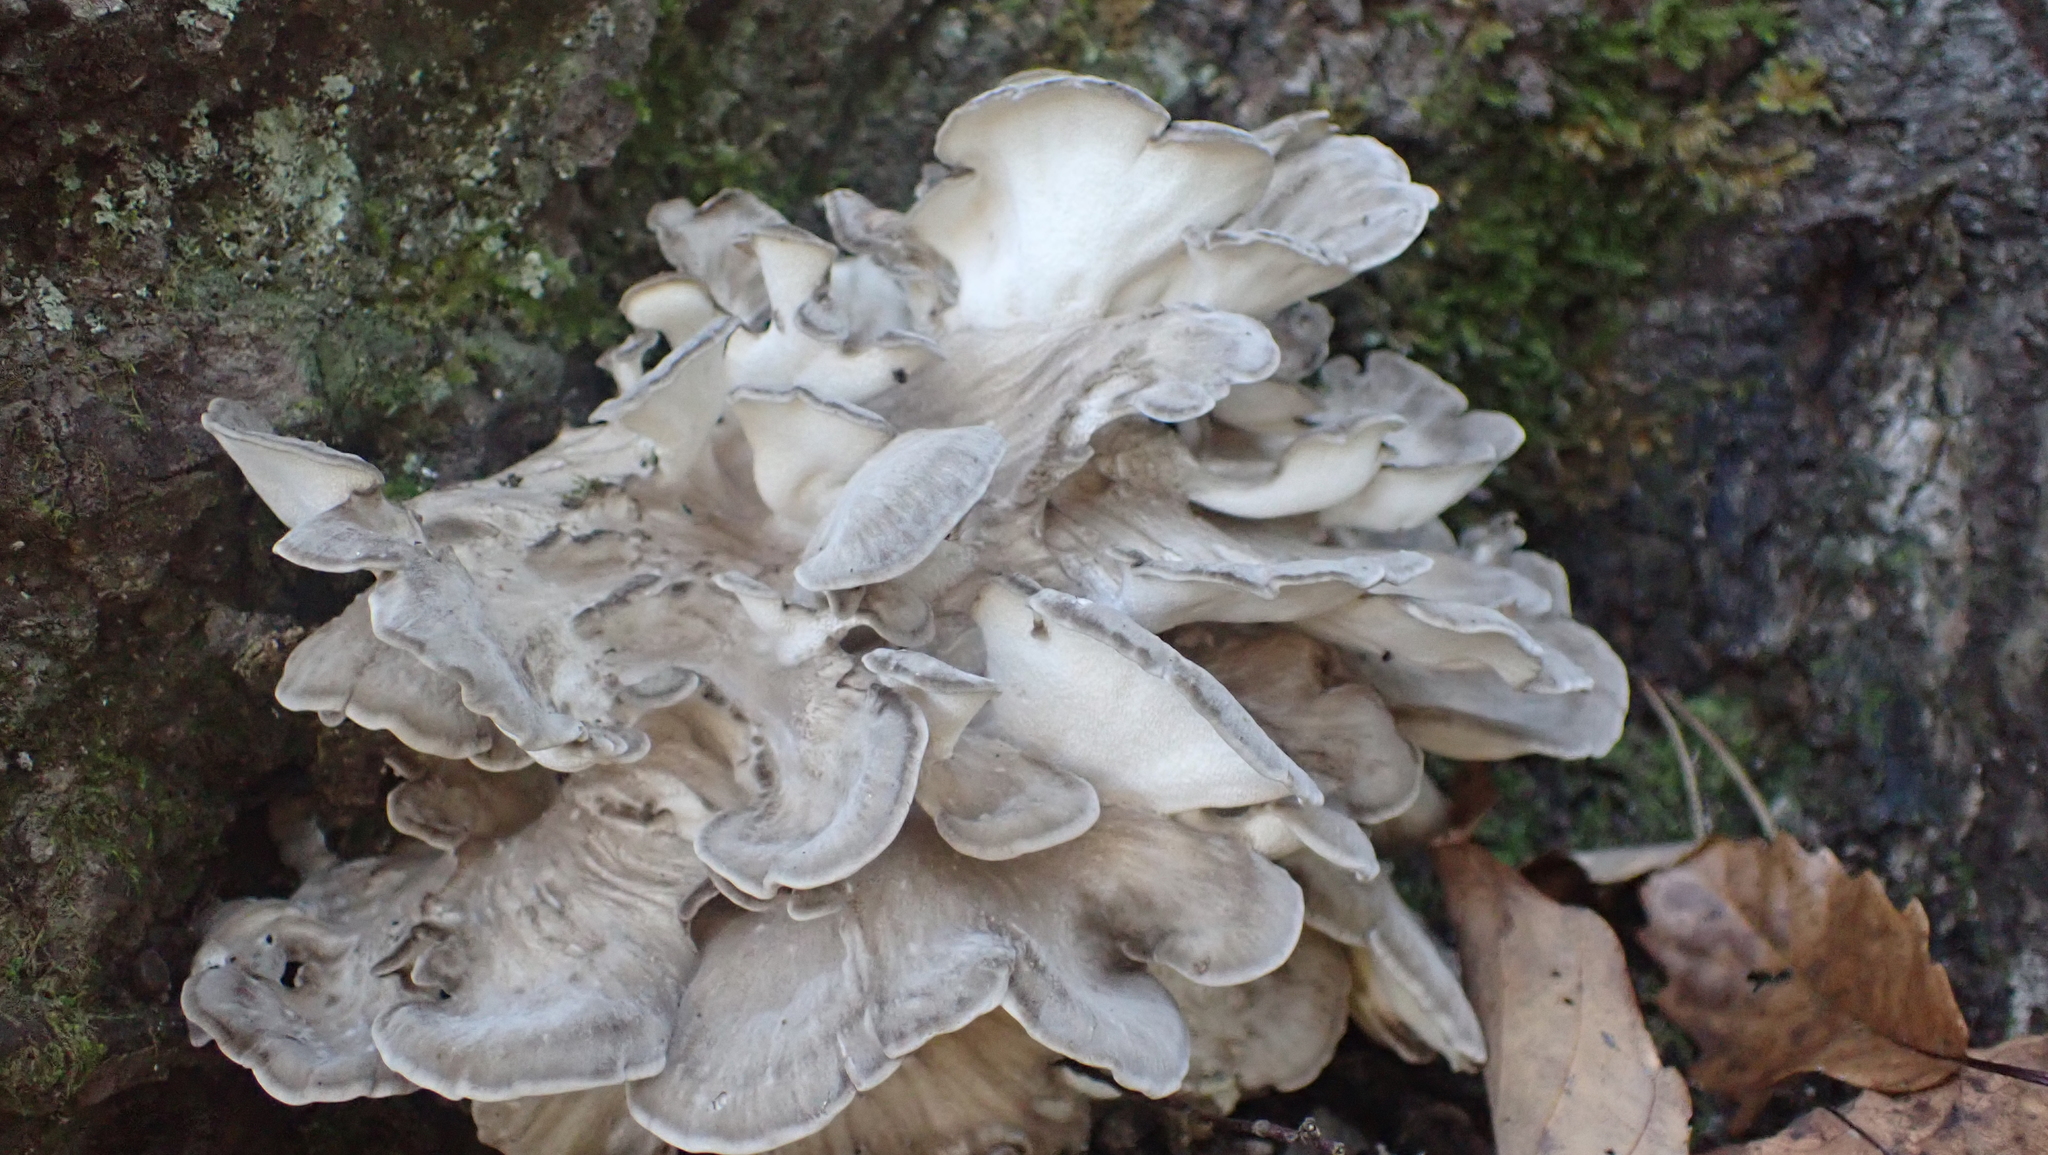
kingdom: Fungi
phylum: Basidiomycota
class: Agaricomycetes
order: Polyporales
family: Grifolaceae
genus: Grifola
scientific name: Grifola frondosa
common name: Hen of the woods
